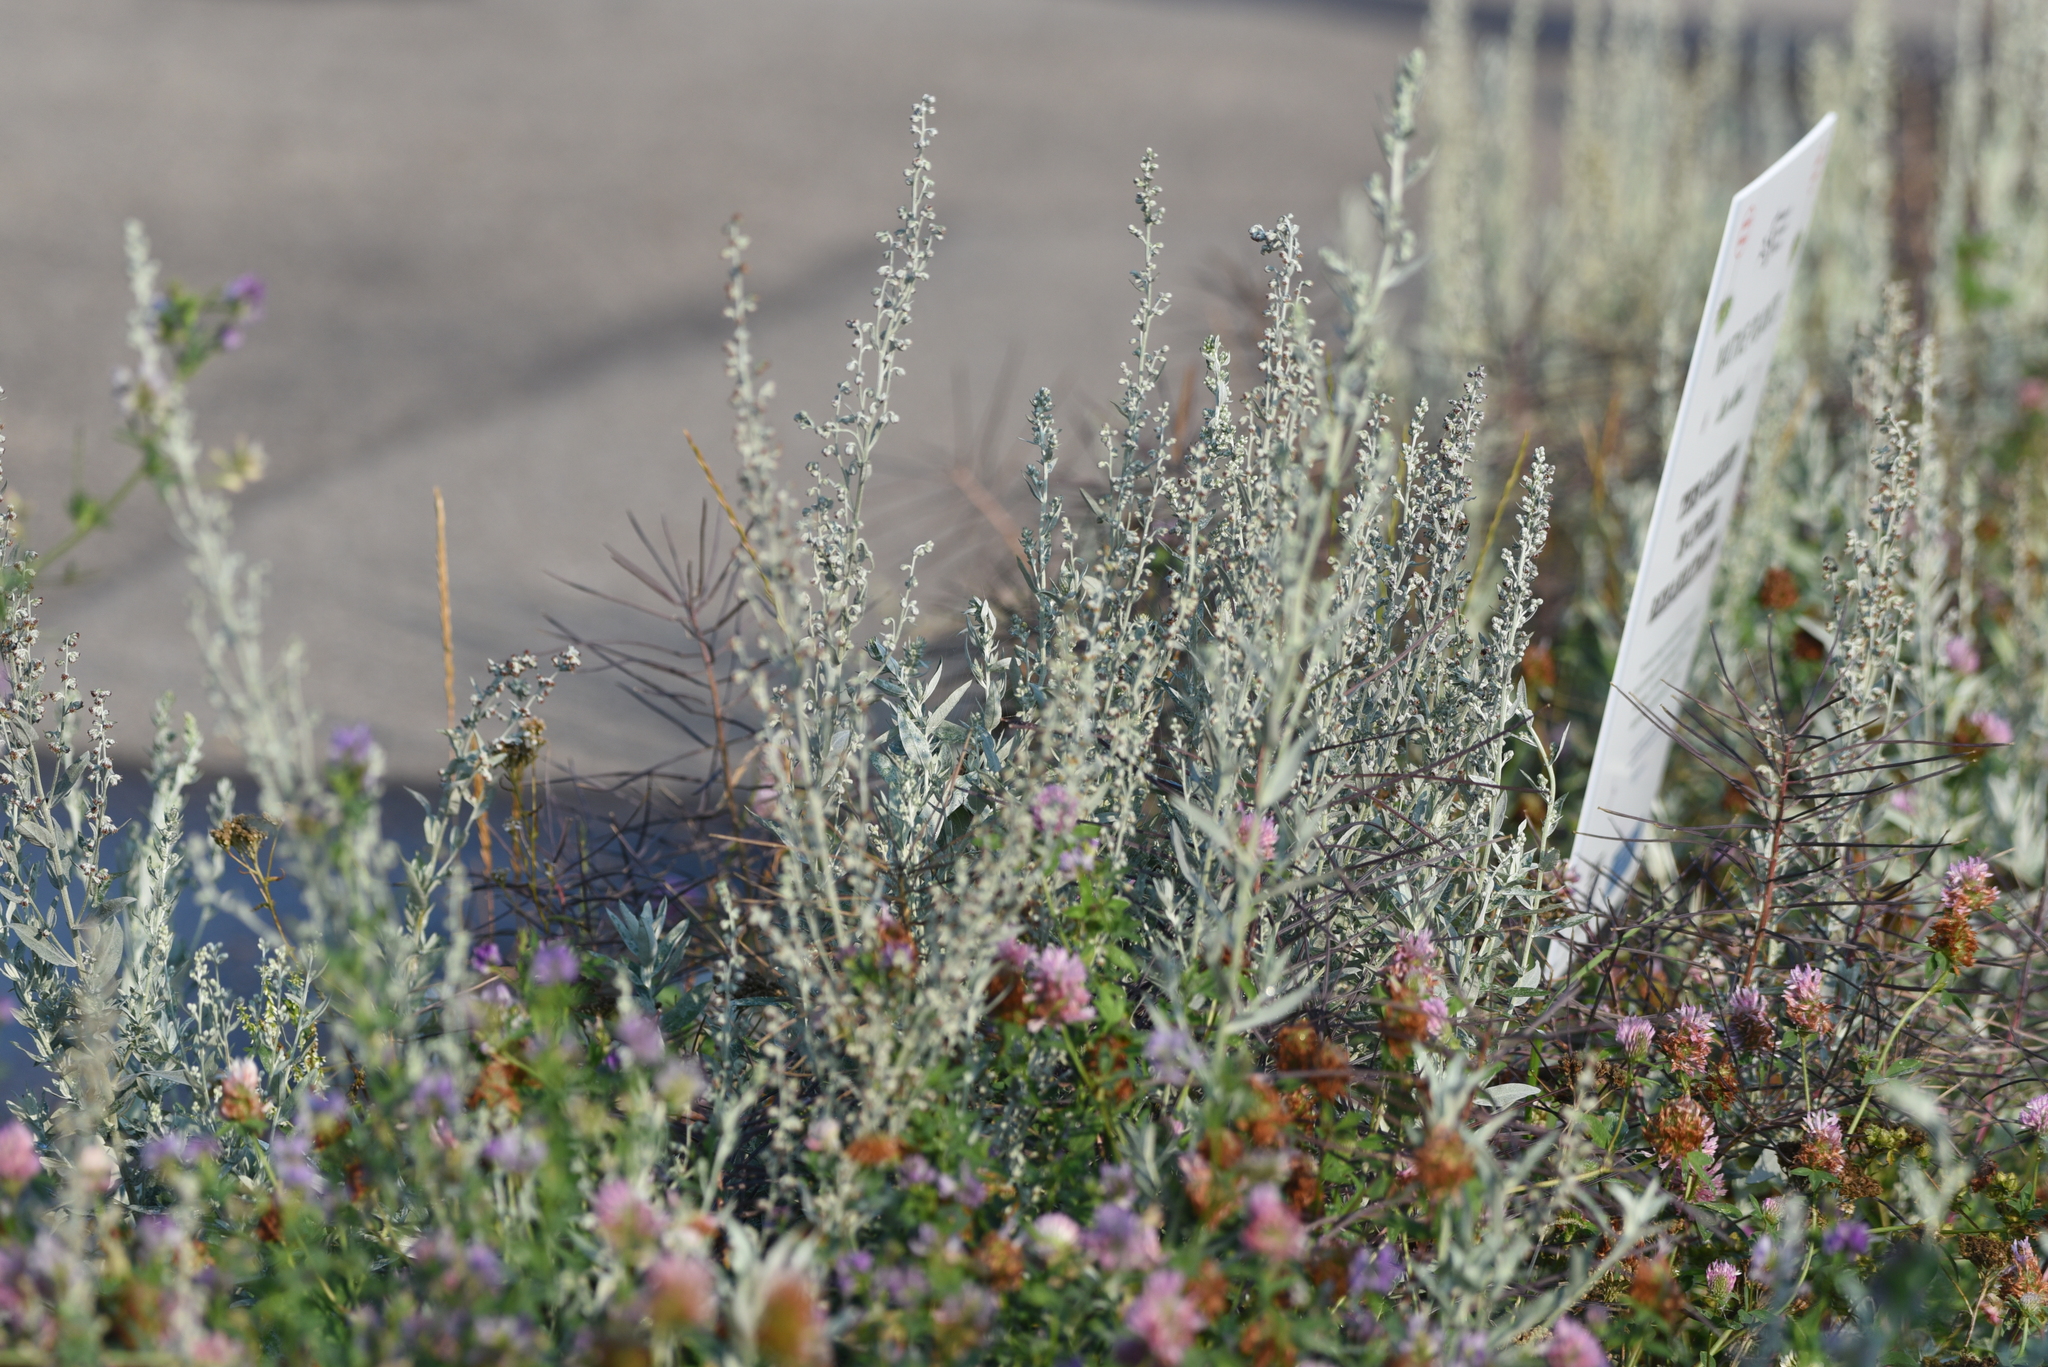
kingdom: Plantae
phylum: Tracheophyta
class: Magnoliopsida
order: Asterales
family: Asteraceae
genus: Artemisia
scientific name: Artemisia ludoviciana
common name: Western mugwort
